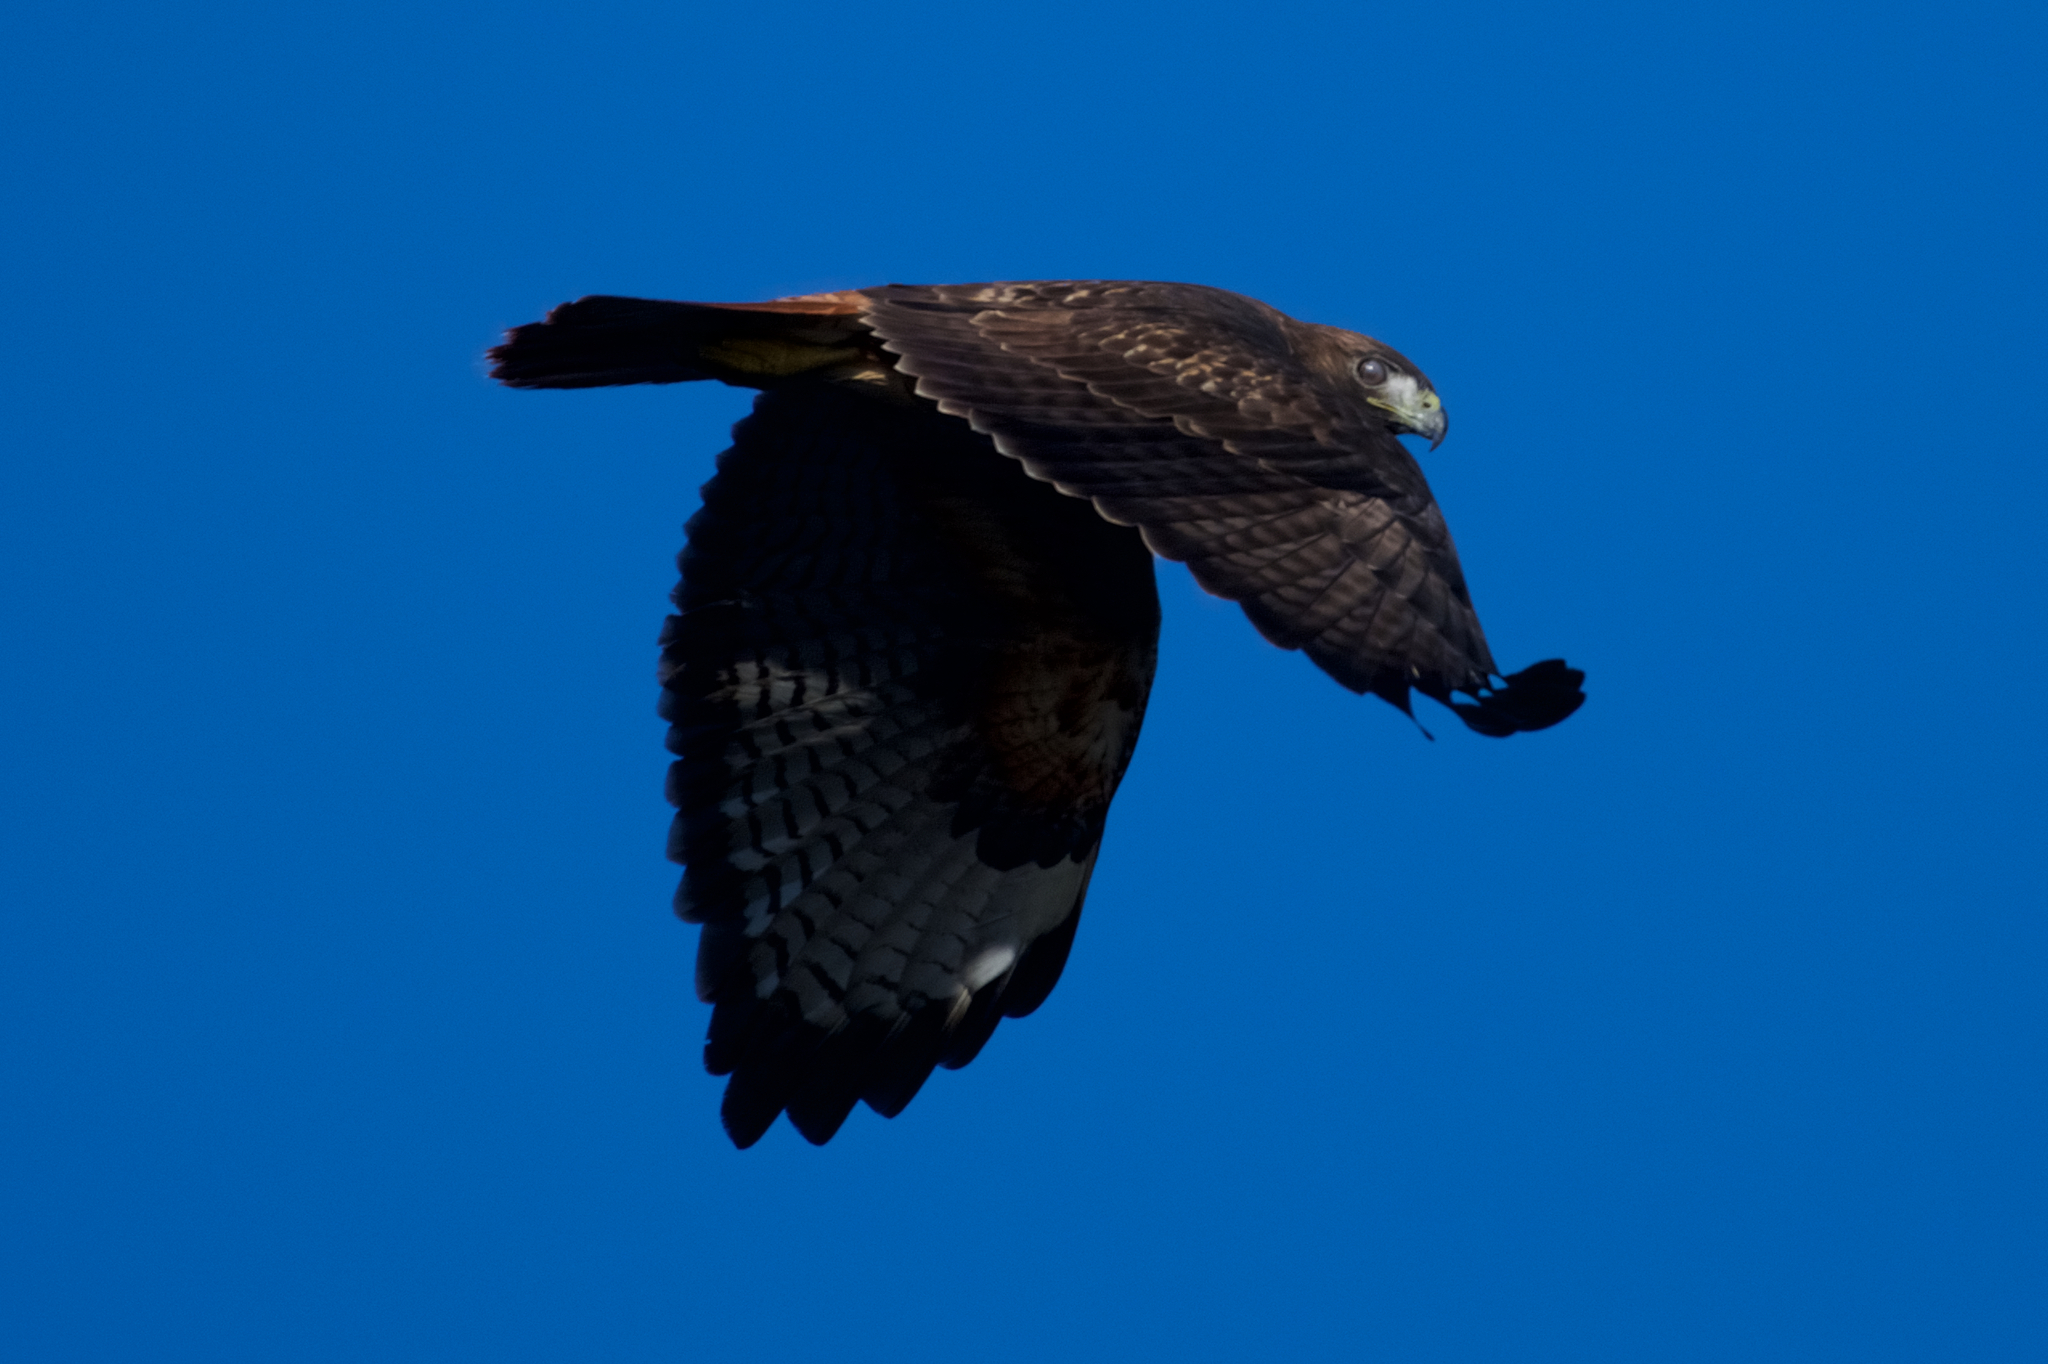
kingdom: Animalia
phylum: Chordata
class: Aves
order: Accipitriformes
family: Accipitridae
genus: Buteo
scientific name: Buteo jamaicensis
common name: Red-tailed hawk
